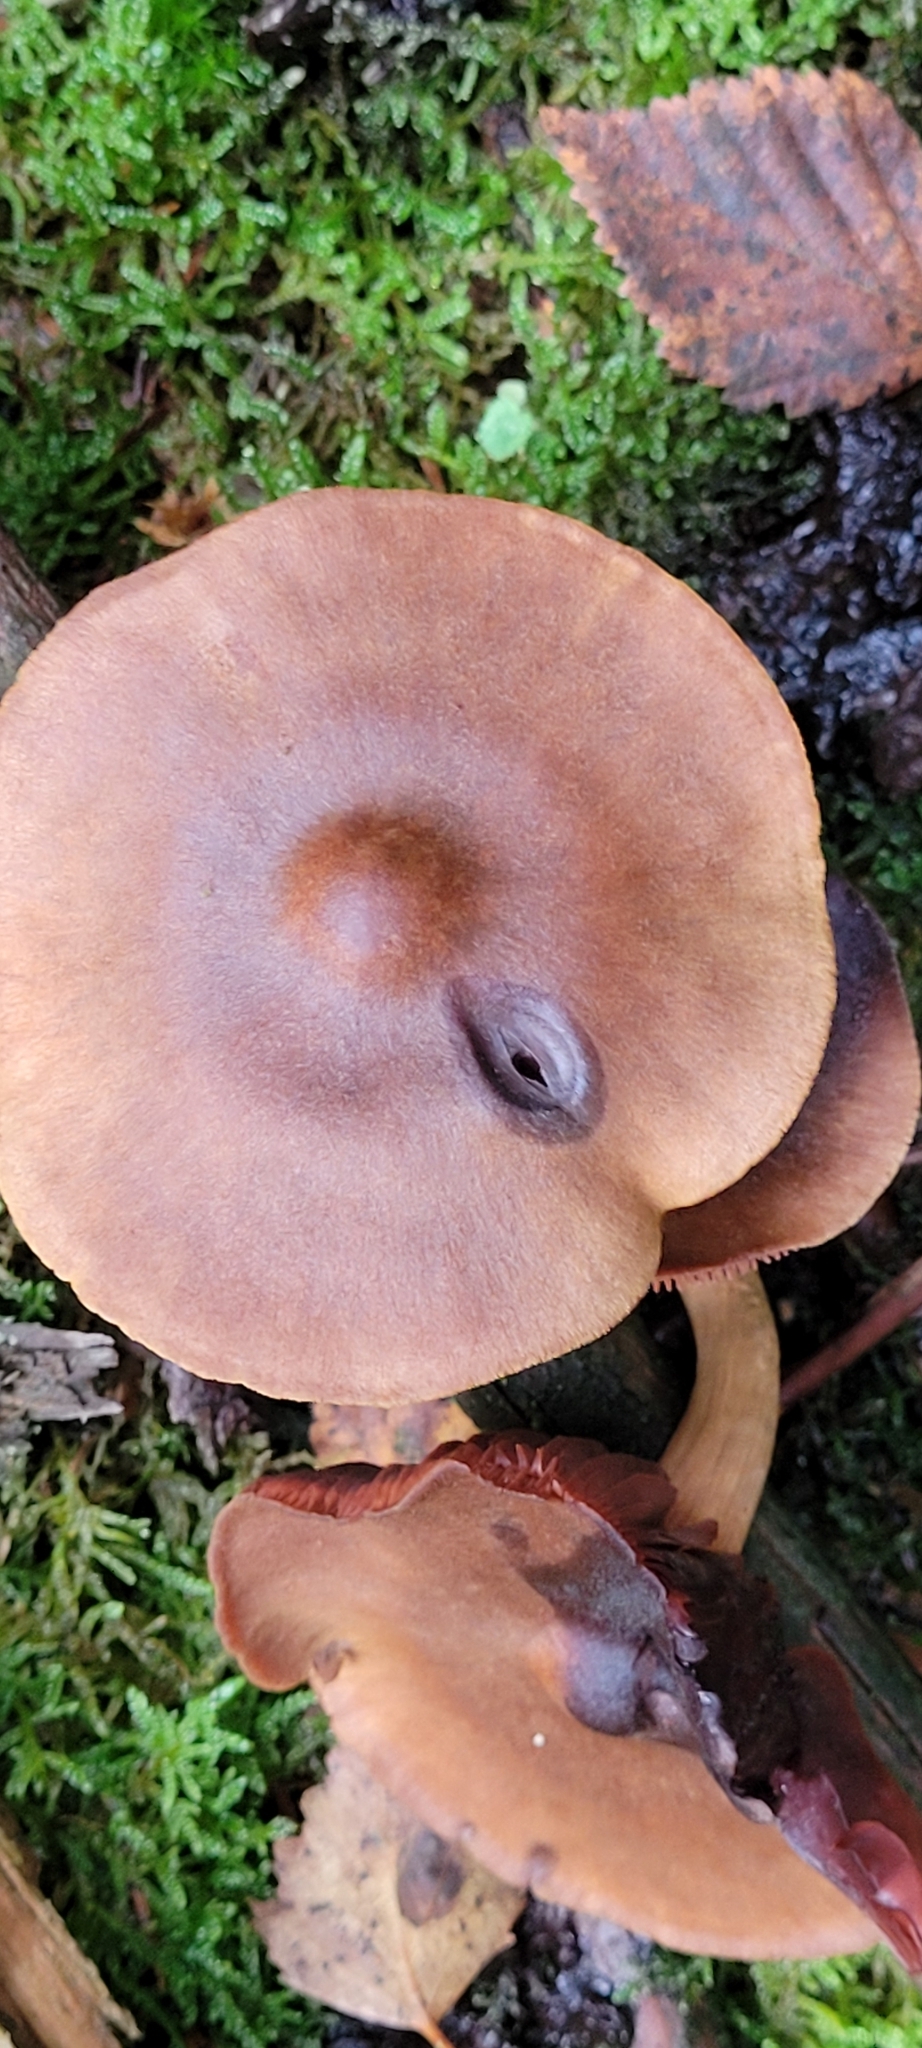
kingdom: Fungi
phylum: Basidiomycota
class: Agaricomycetes
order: Agaricales
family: Cortinariaceae
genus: Cortinarius
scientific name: Cortinarius semisanguineus
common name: Surprise webcap
